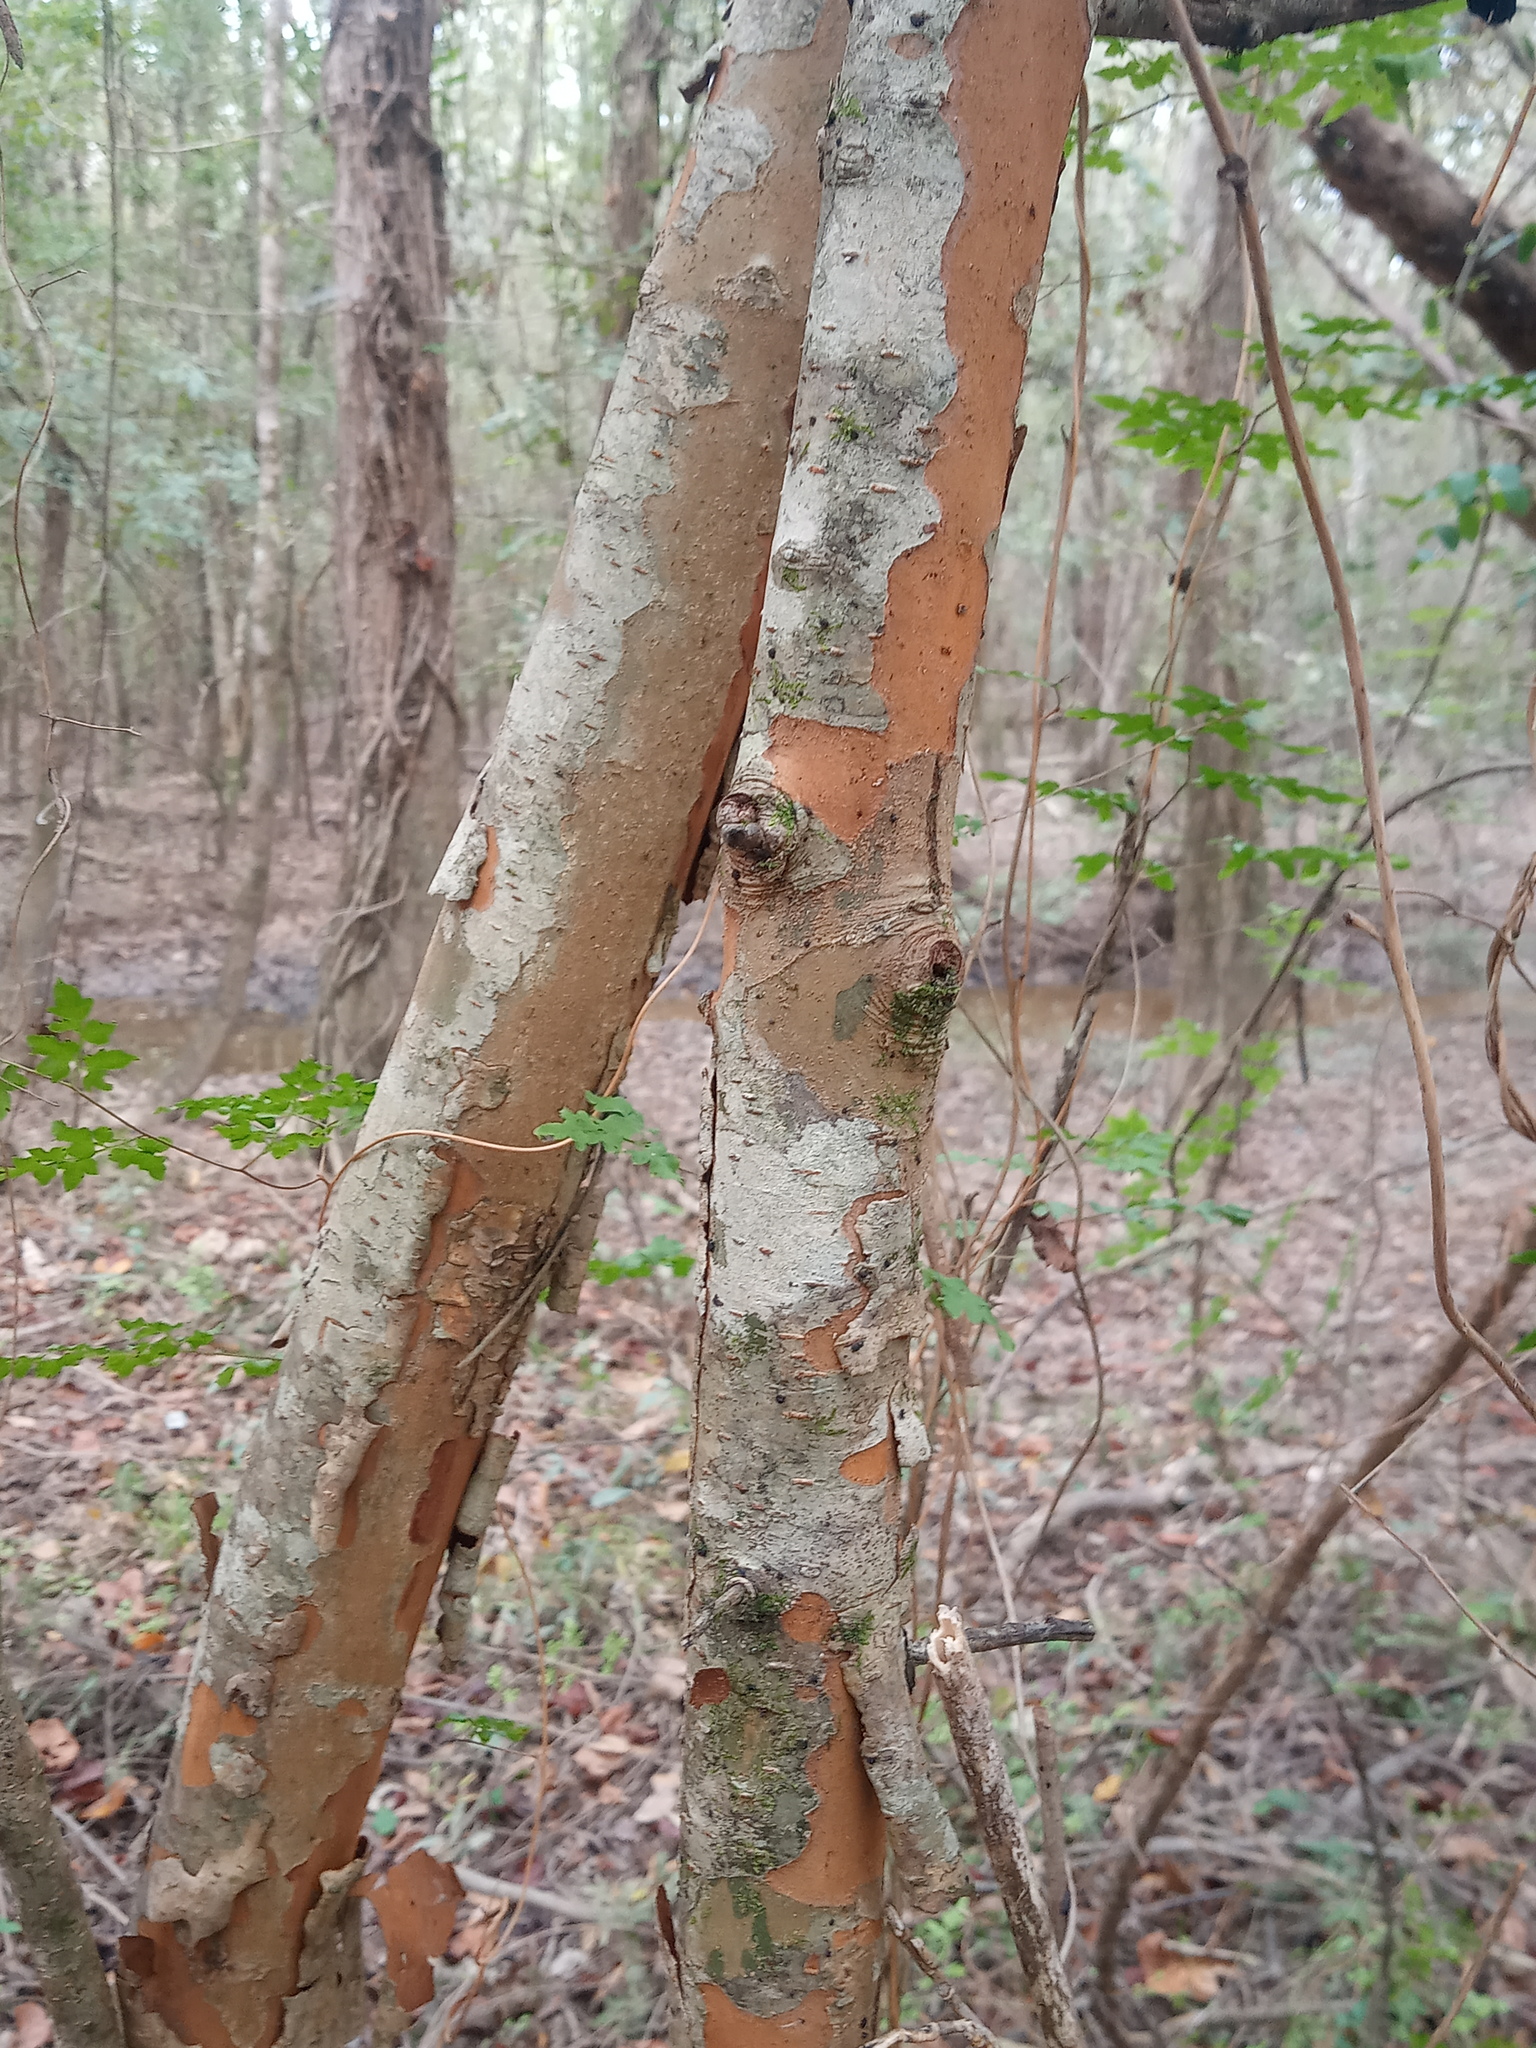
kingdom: Plantae
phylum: Tracheophyta
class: Magnoliopsida
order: Rosales
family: Rosaceae
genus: Crataegus
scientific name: Crataegus marshallii
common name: Parsley-hawthorn
